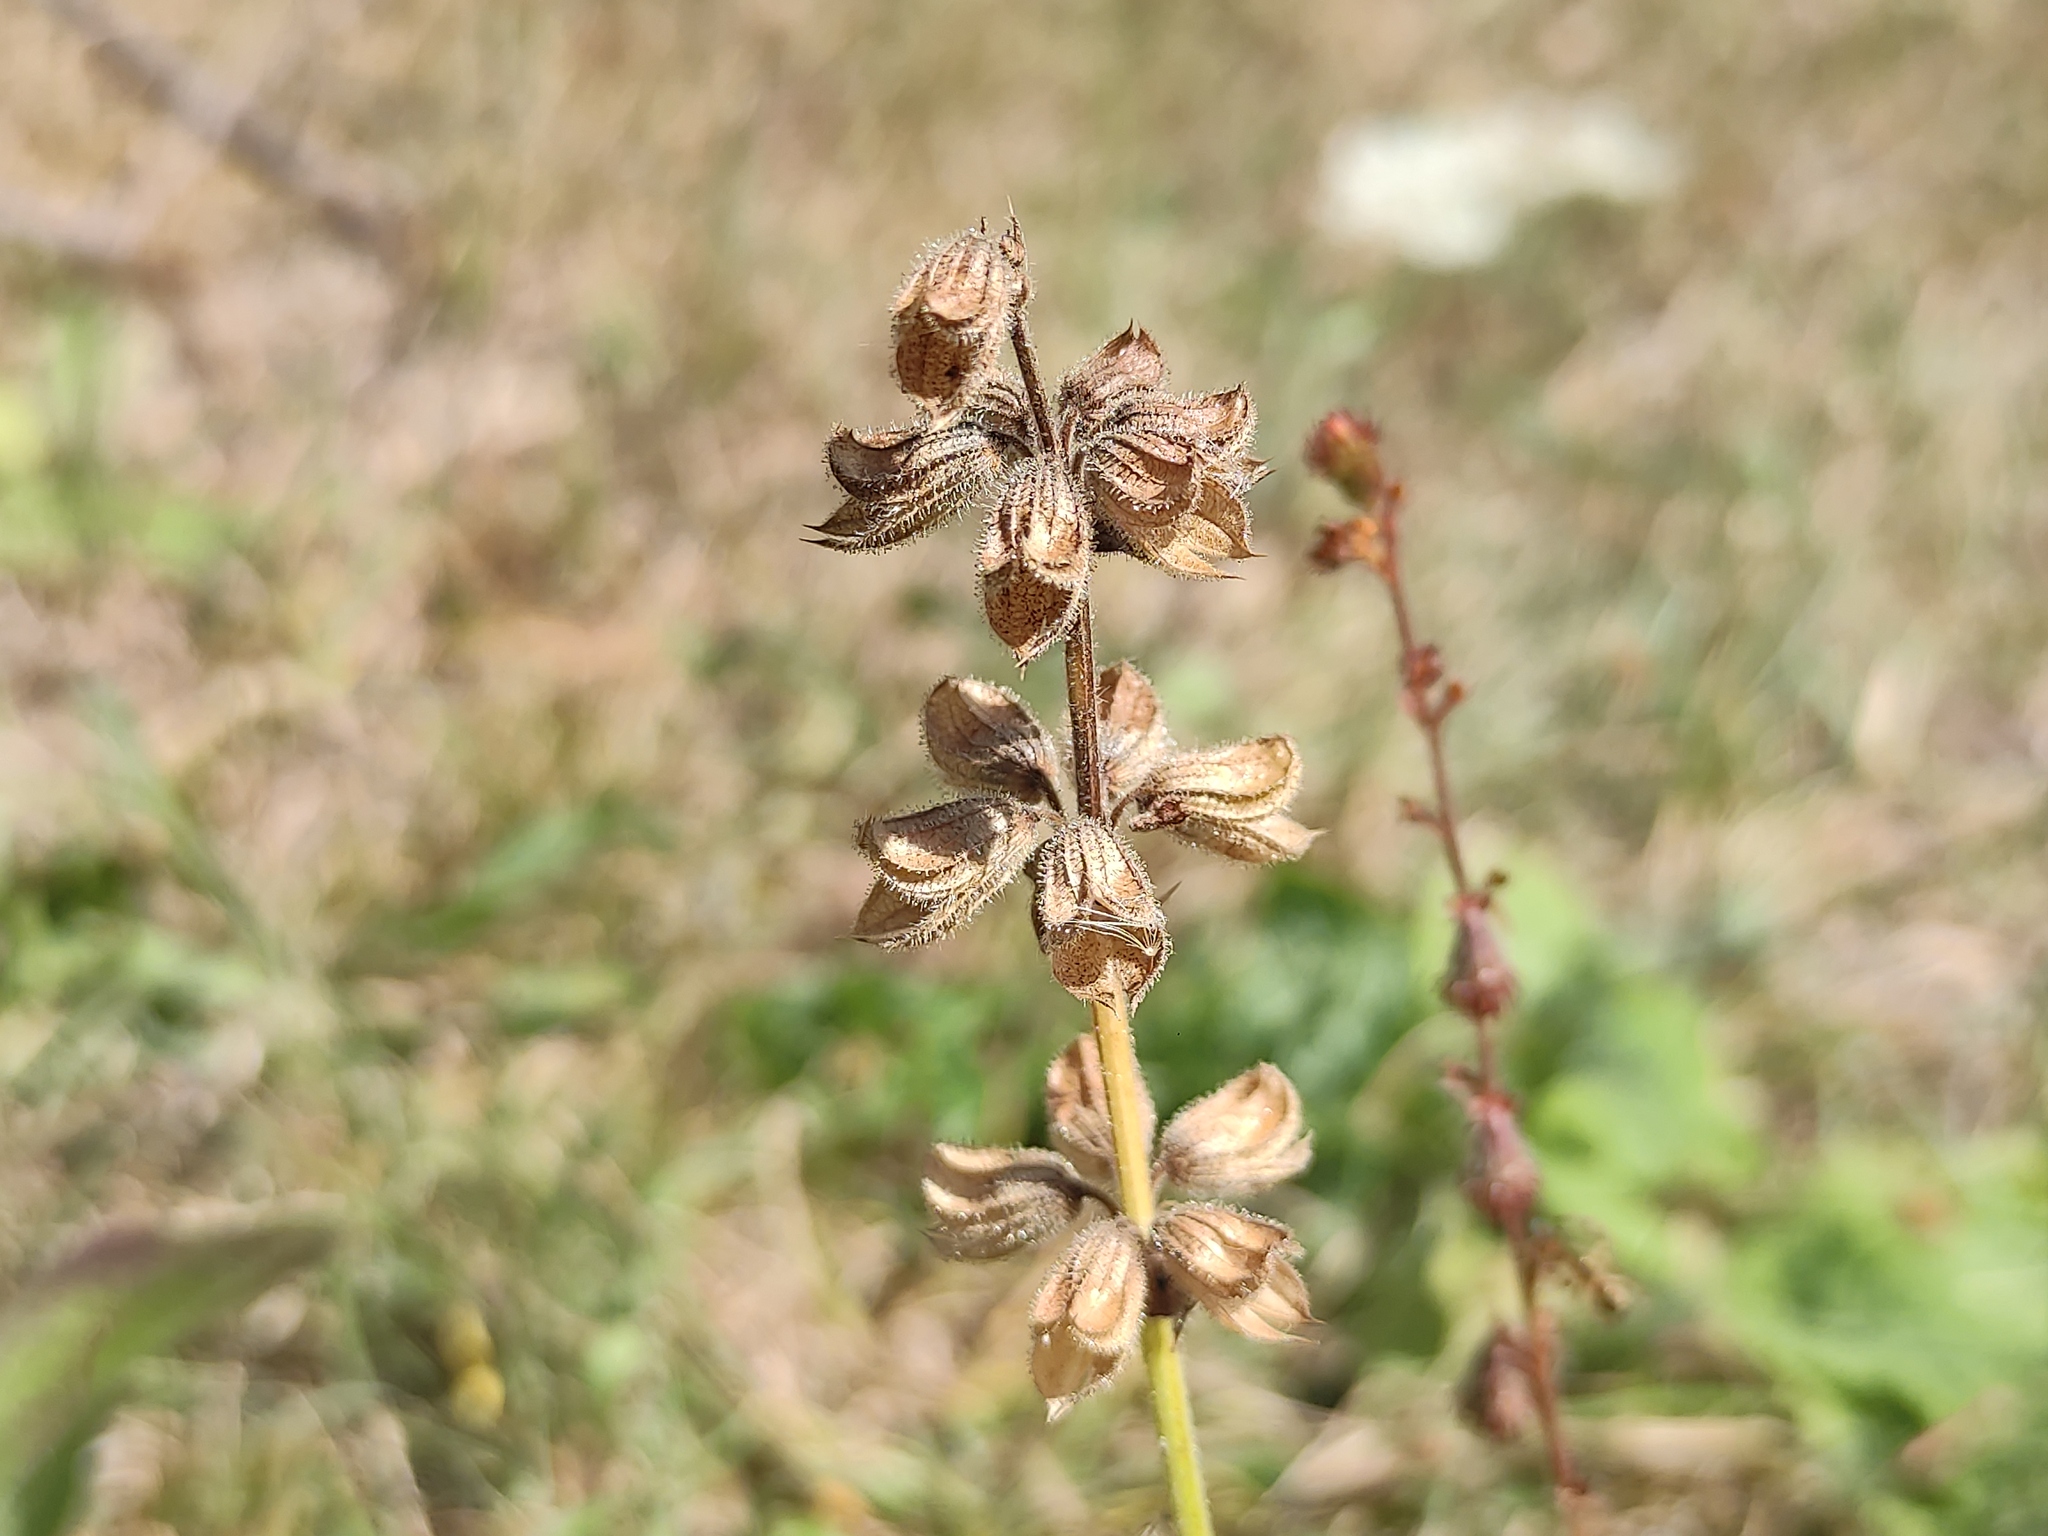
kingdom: Plantae
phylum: Tracheophyta
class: Magnoliopsida
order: Lamiales
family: Lamiaceae
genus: Salvia
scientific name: Salvia verbenaca
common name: Wild clary
